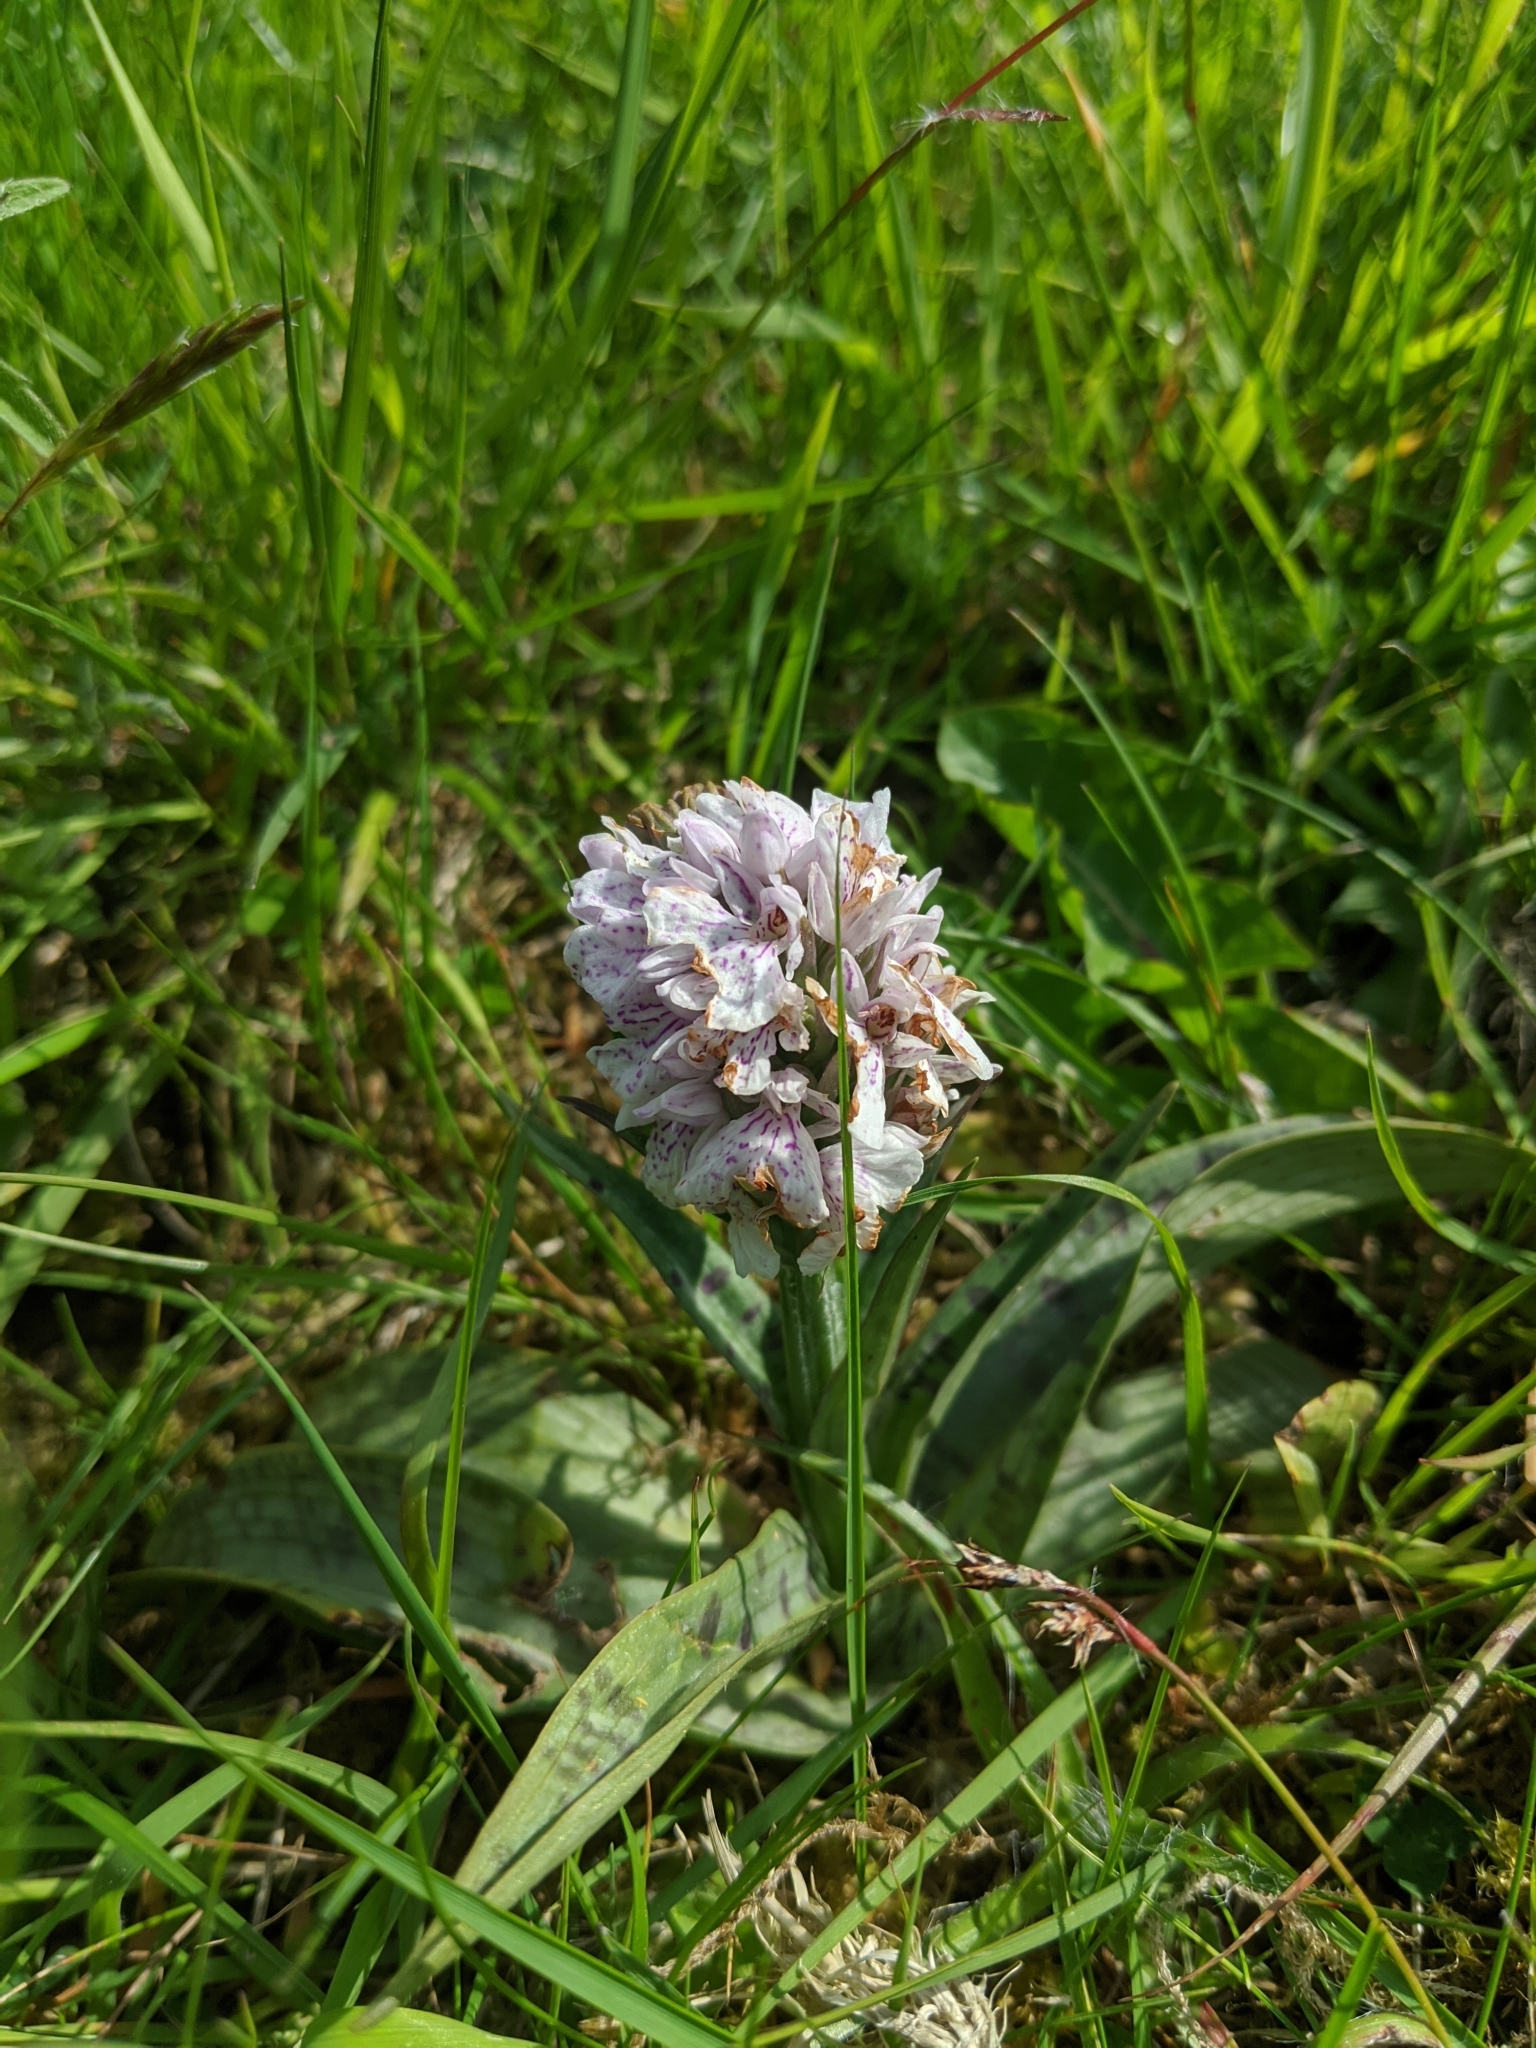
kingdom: Plantae
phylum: Tracheophyta
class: Liliopsida
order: Asparagales
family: Orchidaceae
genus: Dactylorhiza
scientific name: Dactylorhiza maculata
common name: Heath spotted-orchid
